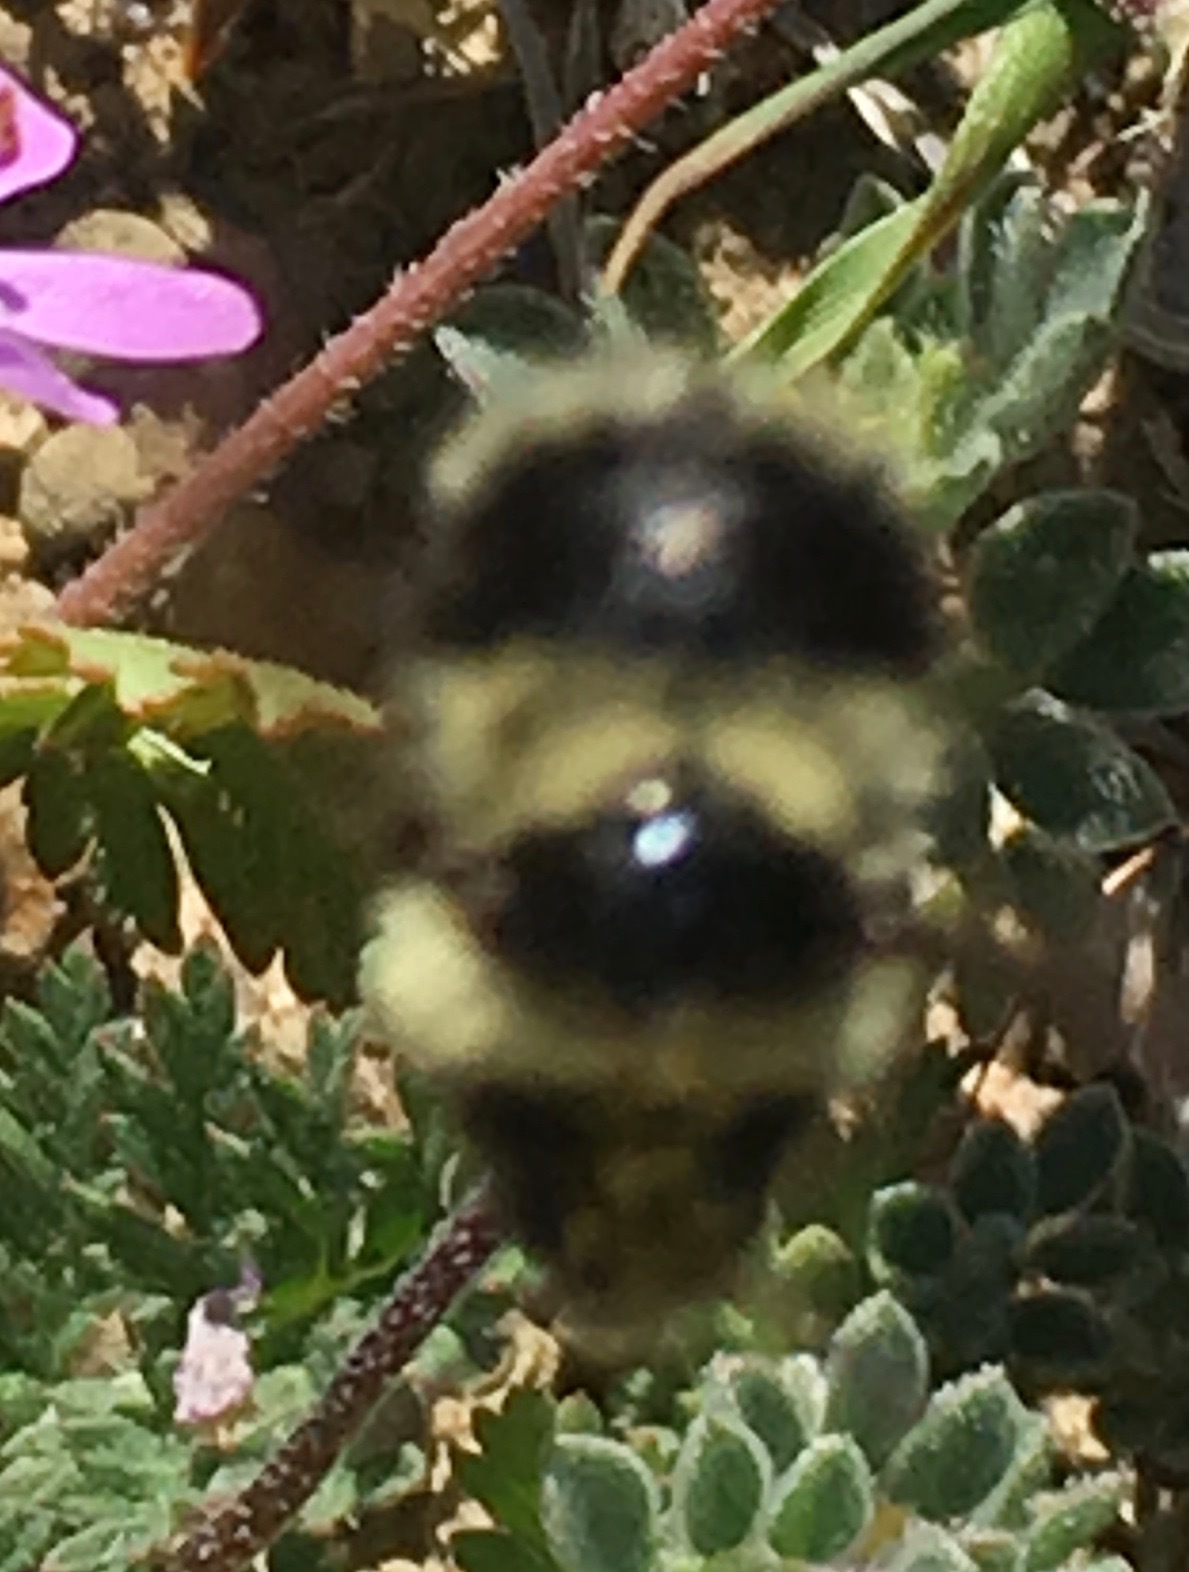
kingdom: Animalia
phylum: Arthropoda
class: Insecta
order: Hymenoptera
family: Apidae
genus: Bombus
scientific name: Bombus melanopygus
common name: Black tail bumble bee
